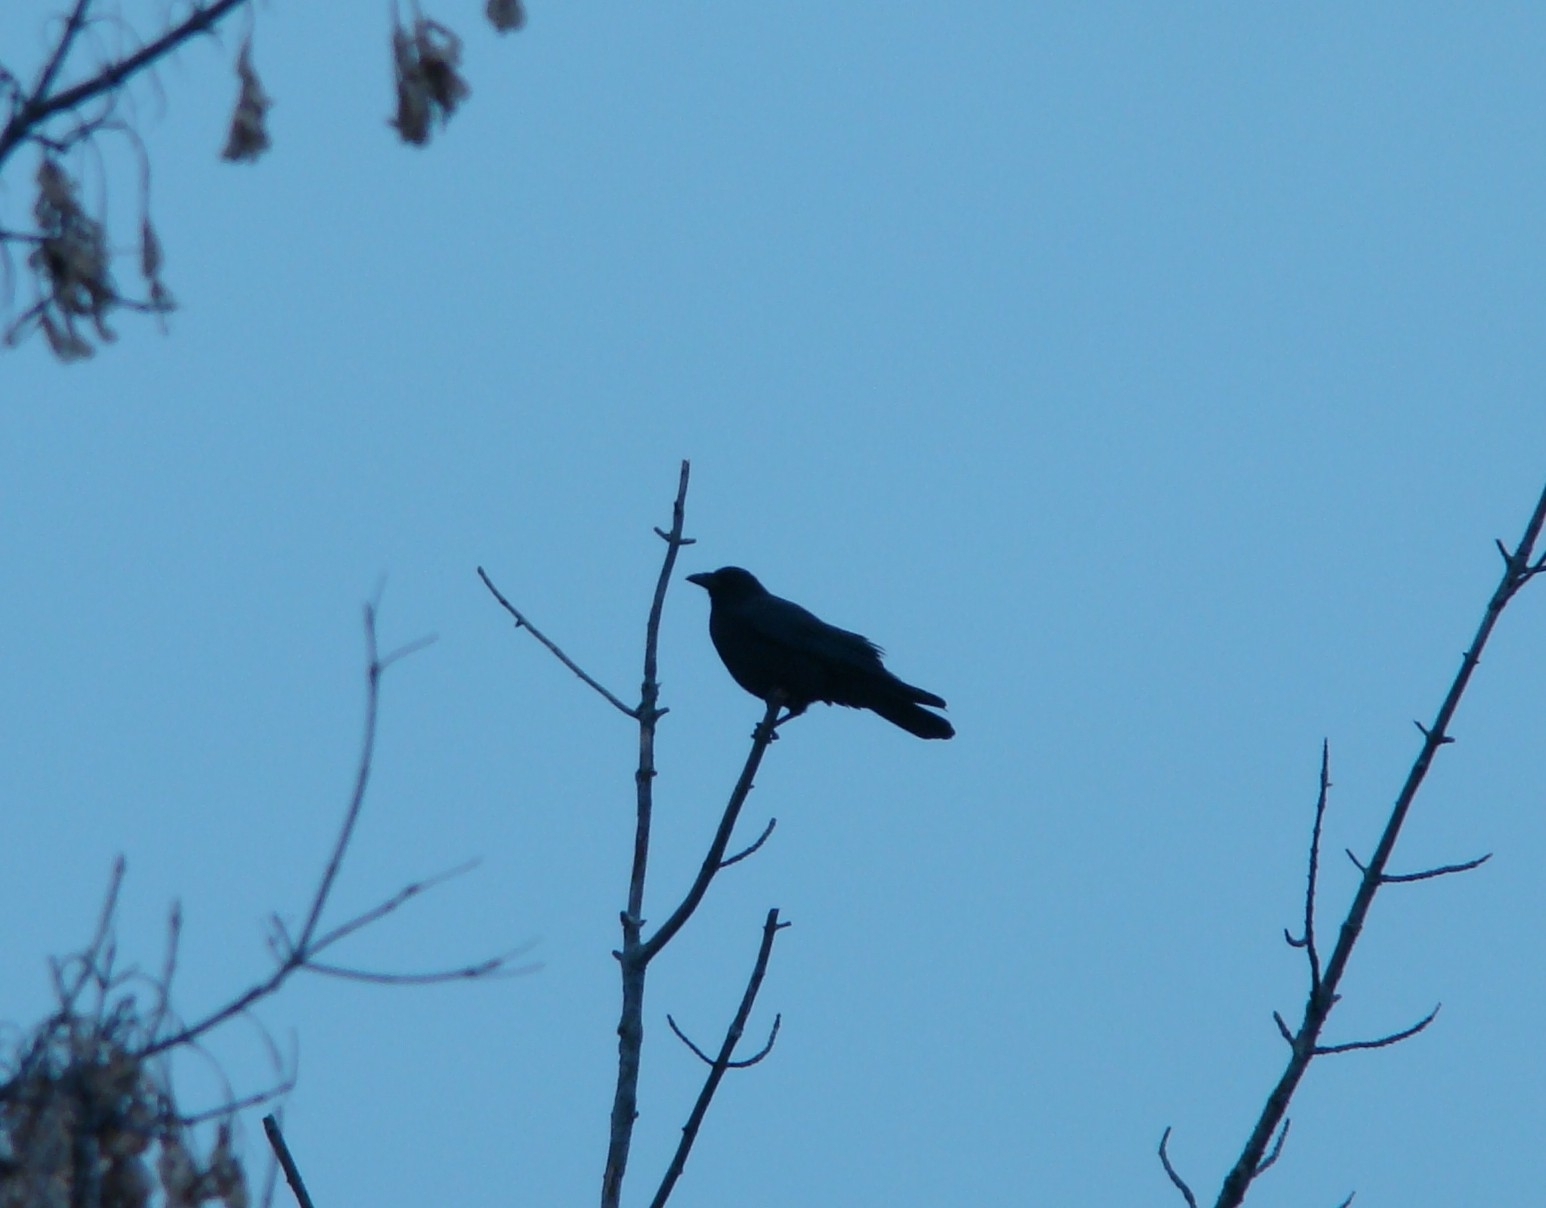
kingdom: Animalia
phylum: Chordata
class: Aves
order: Passeriformes
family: Corvidae
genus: Corvus
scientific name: Corvus brachyrhynchos
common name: American crow
